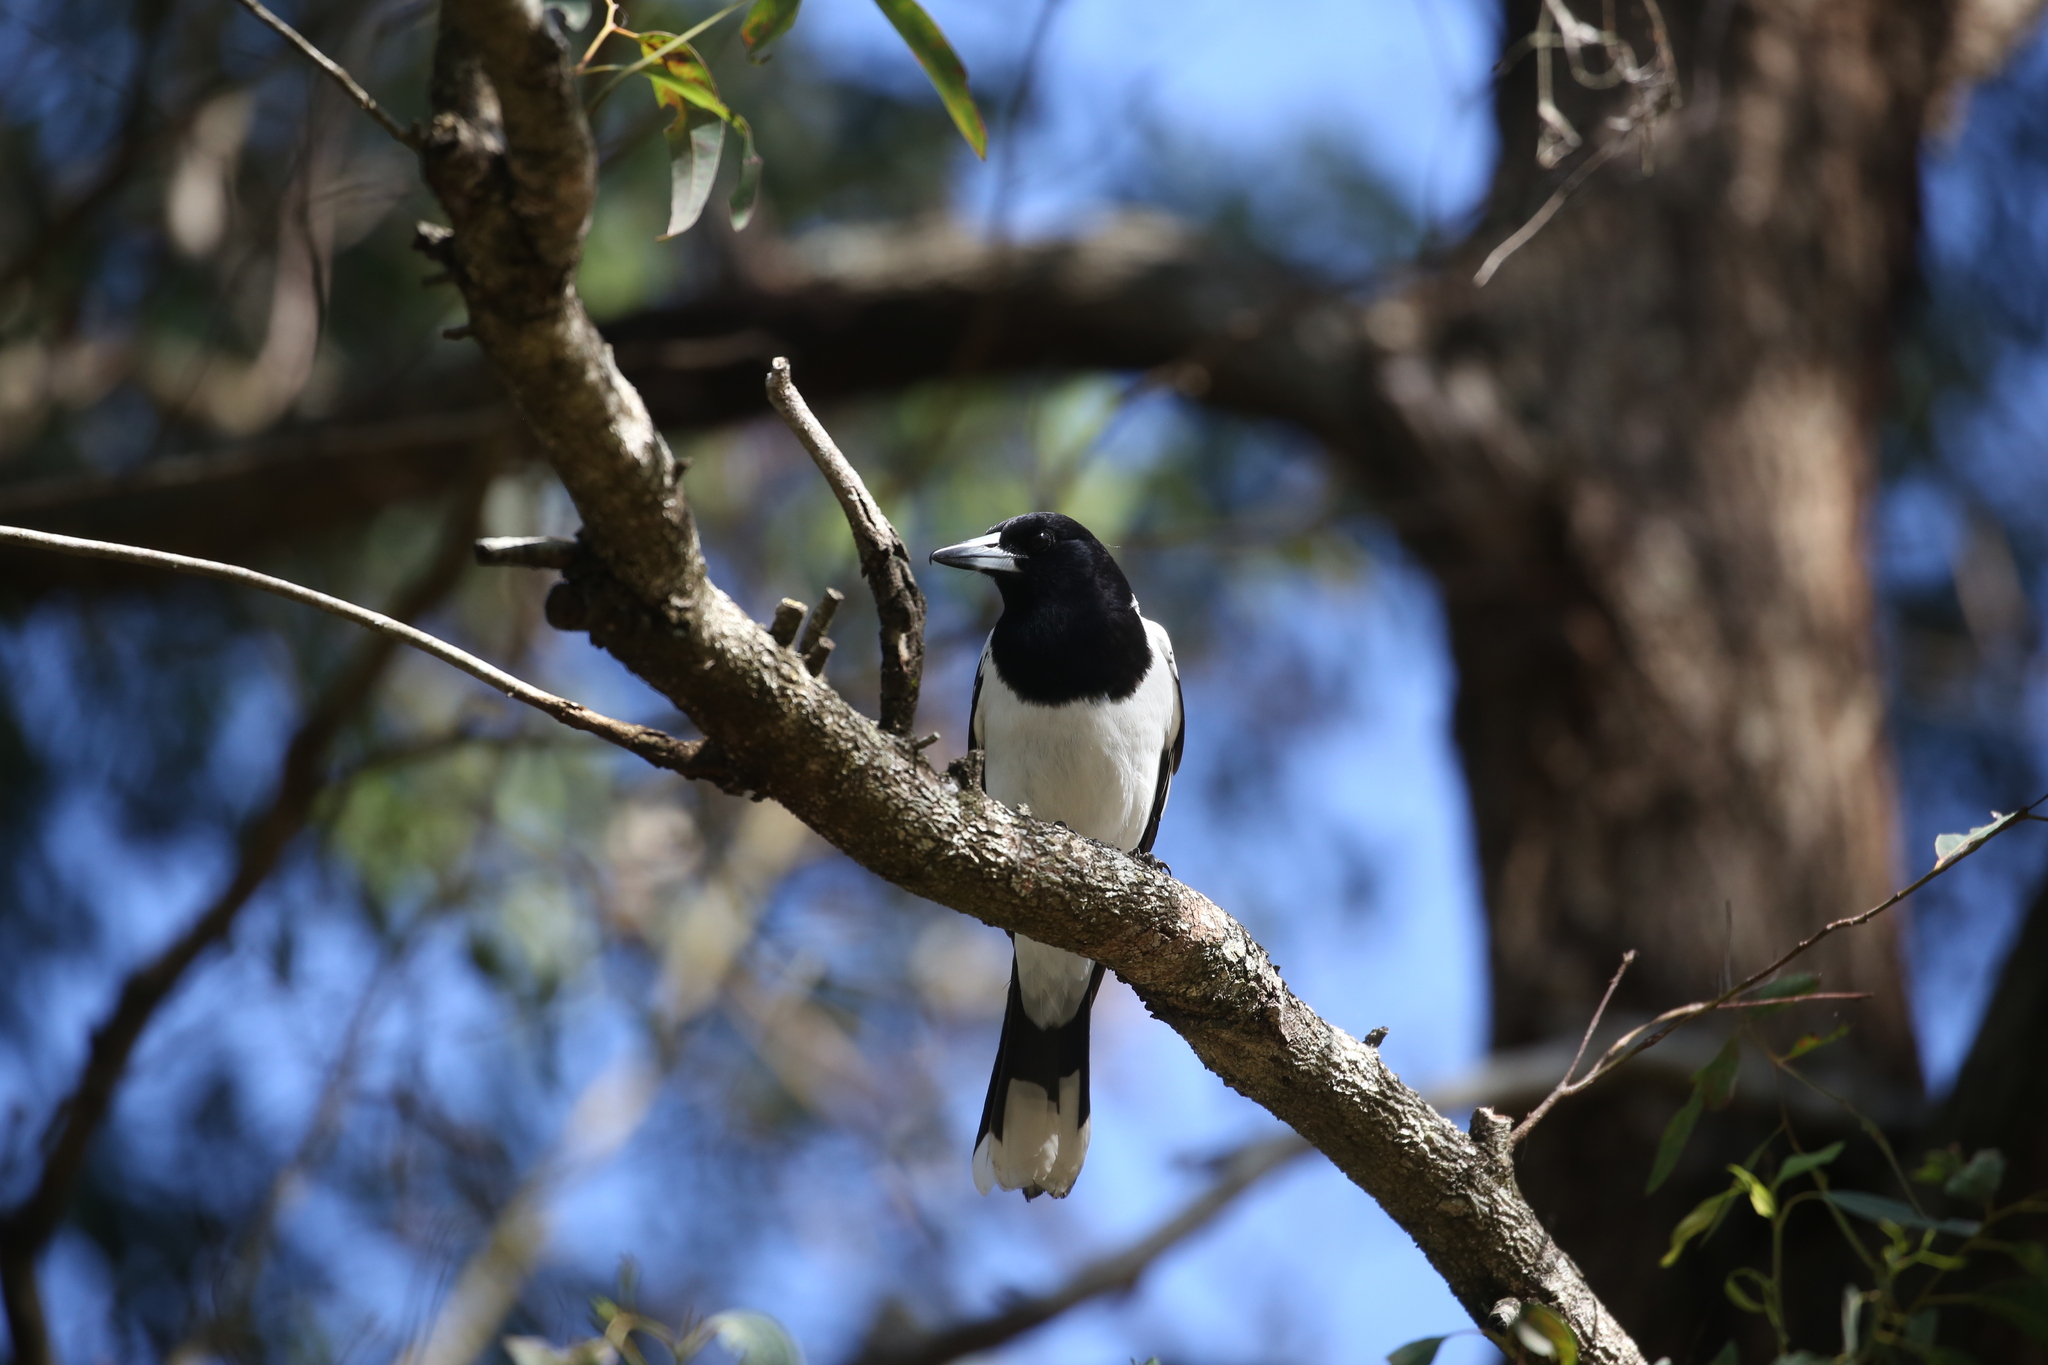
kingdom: Animalia
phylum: Chordata
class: Aves
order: Passeriformes
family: Cracticidae
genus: Cracticus
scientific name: Cracticus nigrogularis
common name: Pied butcherbird
